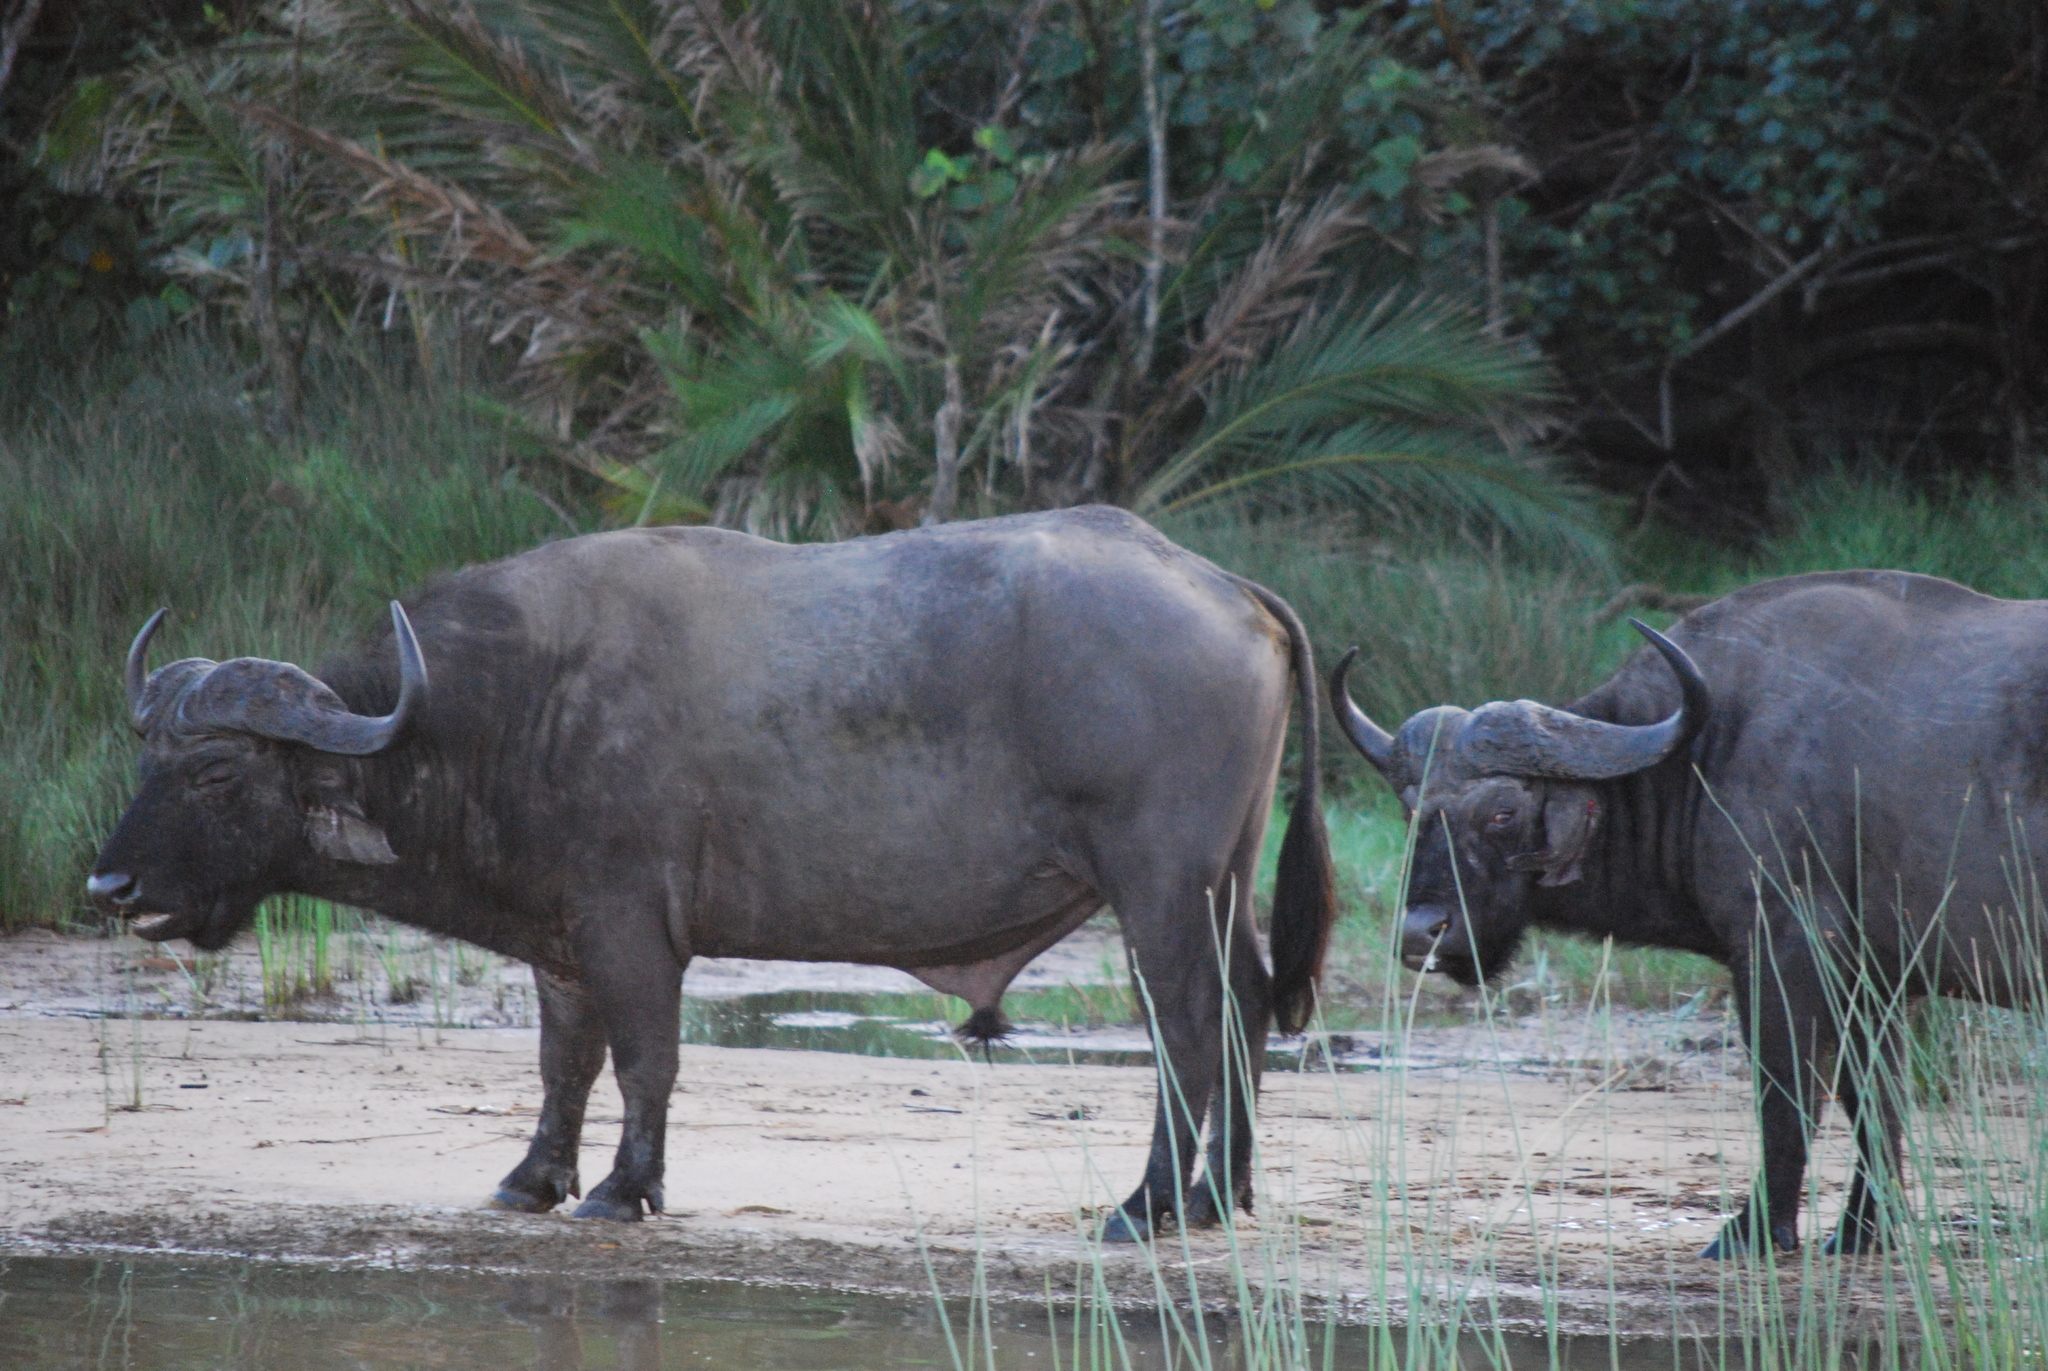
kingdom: Animalia
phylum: Chordata
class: Mammalia
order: Artiodactyla
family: Bovidae
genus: Syncerus
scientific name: Syncerus caffer
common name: African buffalo
